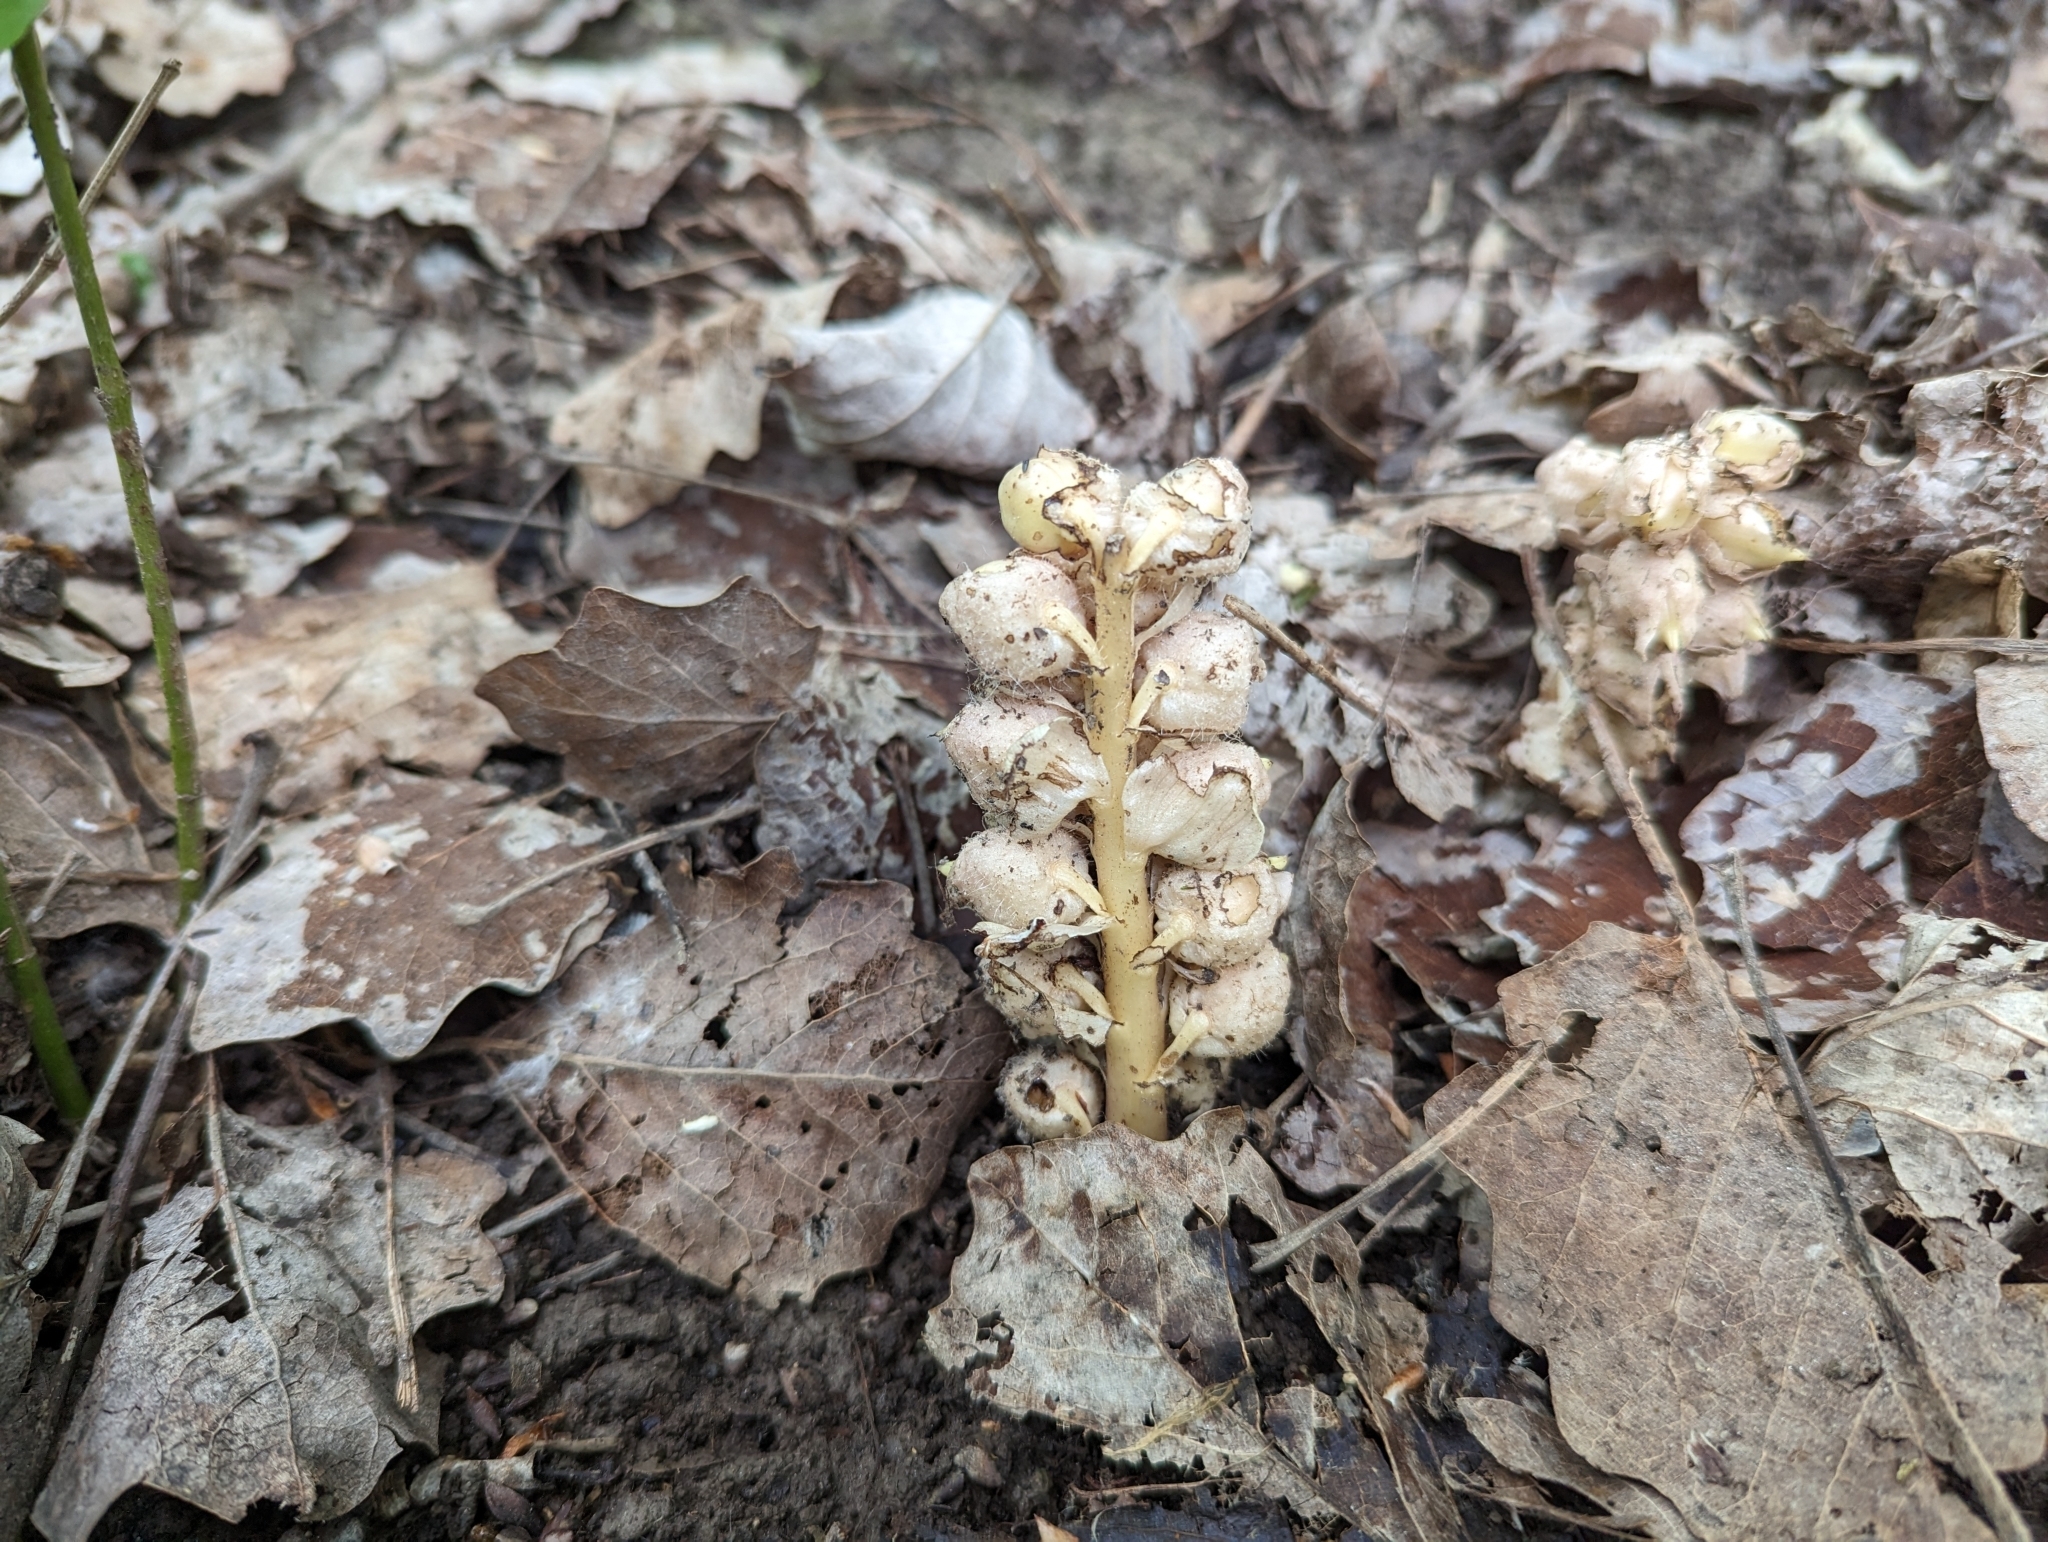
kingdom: Plantae
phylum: Tracheophyta
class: Magnoliopsida
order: Lamiales
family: Orobanchaceae
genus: Lathraea
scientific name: Lathraea squamaria
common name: Toothwort
